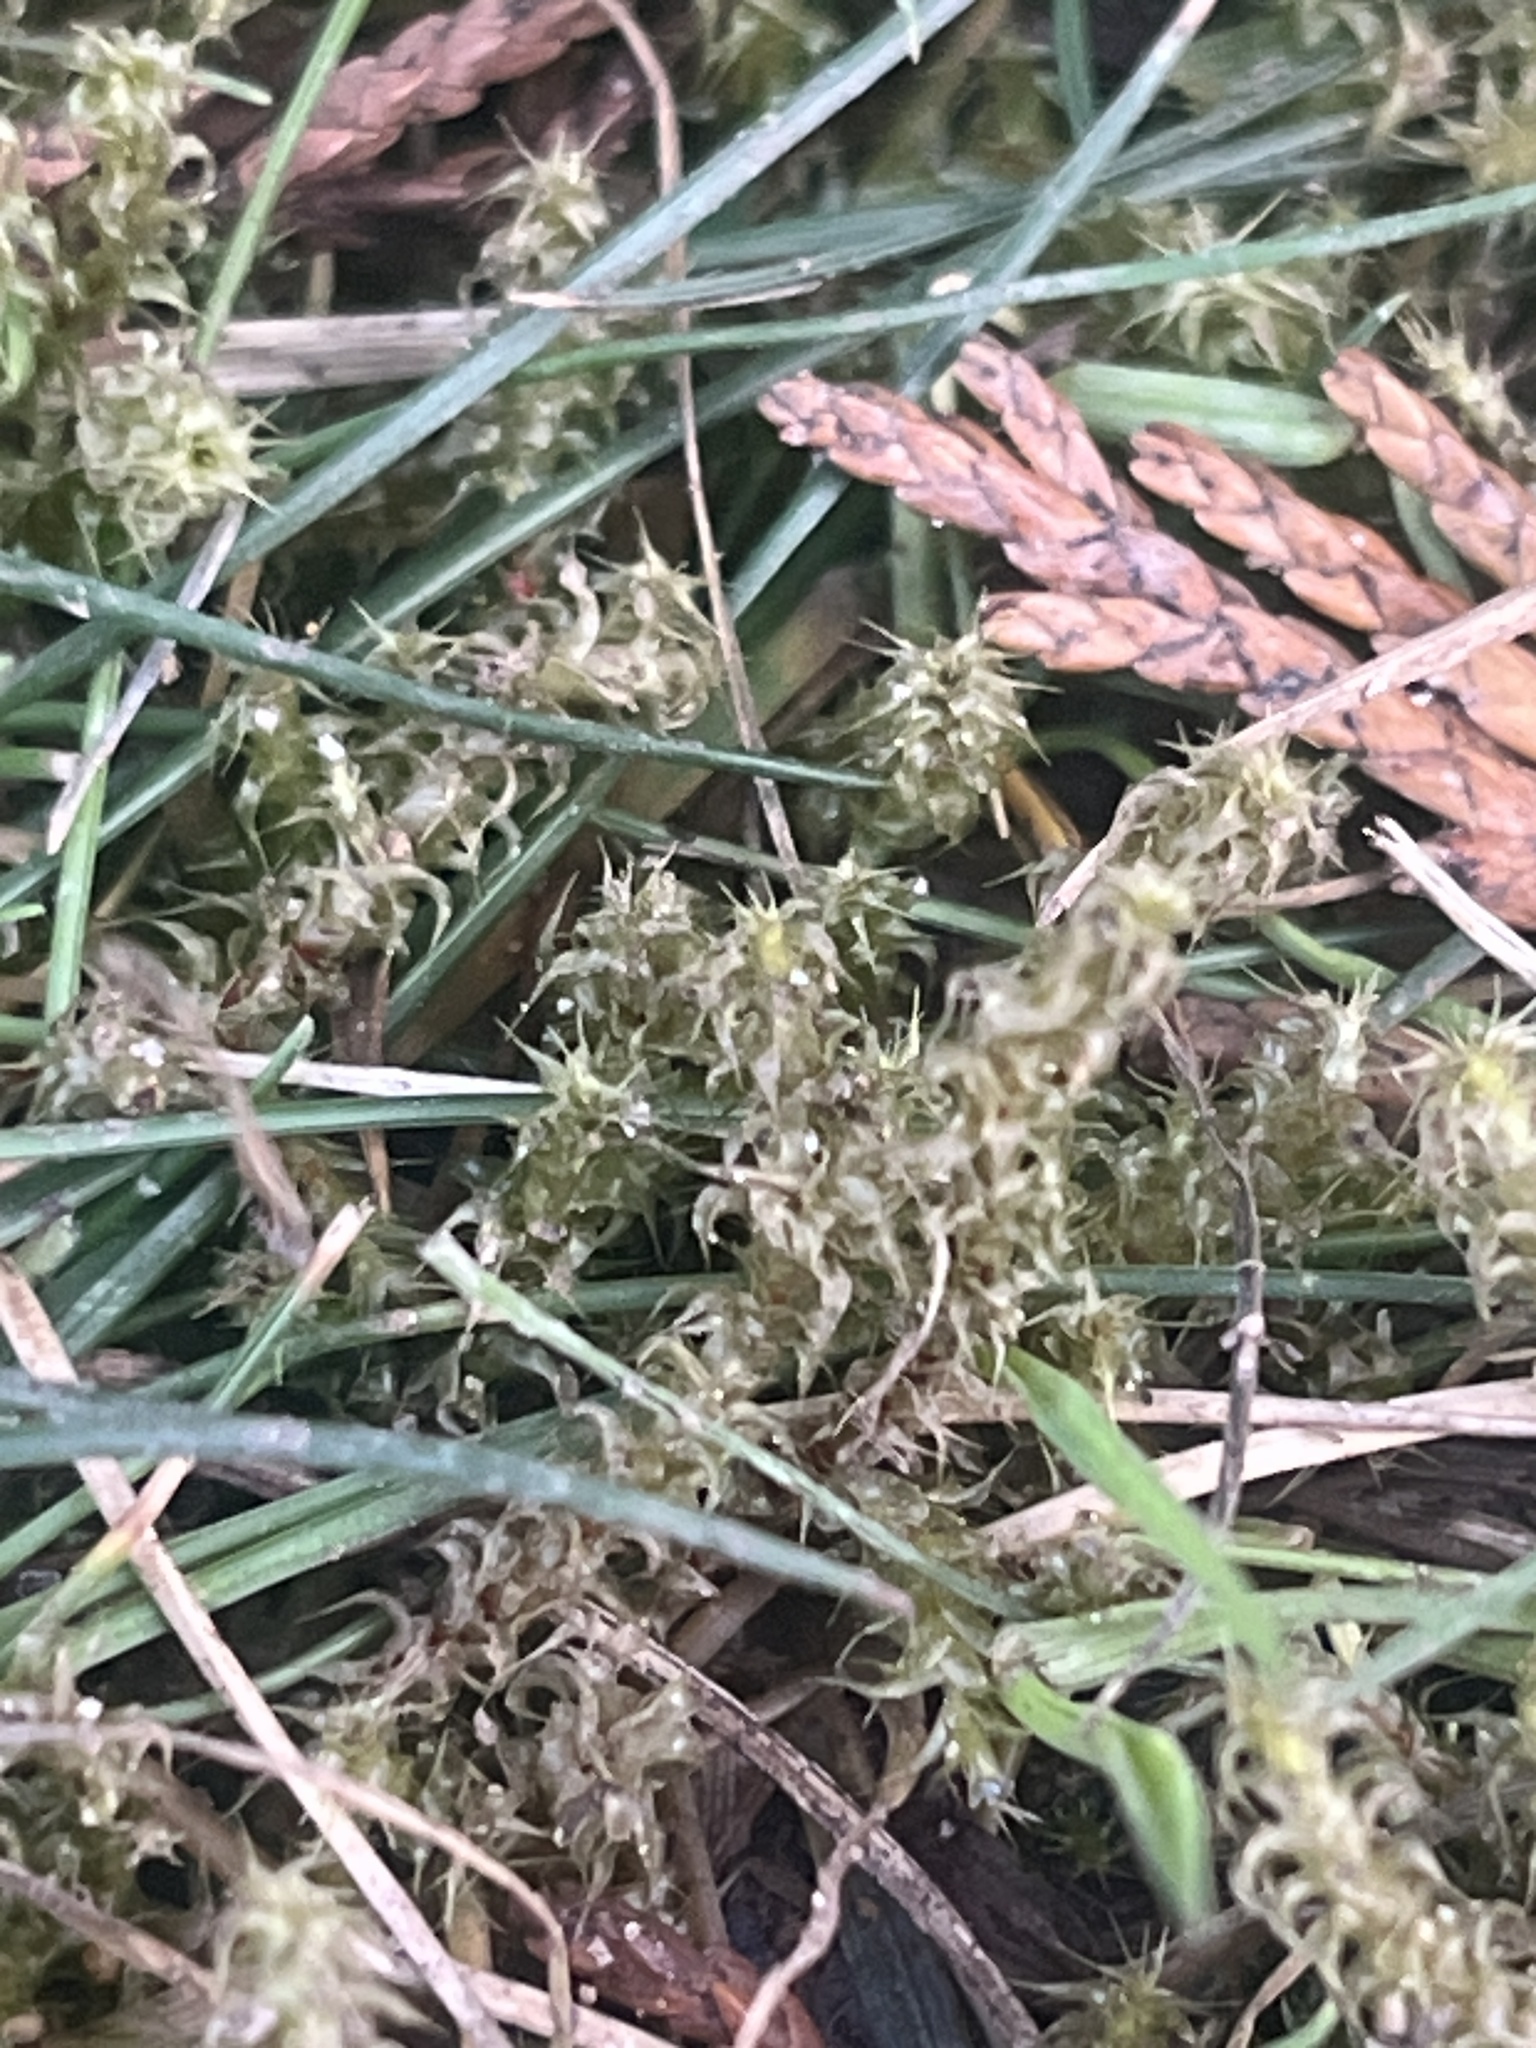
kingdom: Plantae
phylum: Bryophyta
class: Bryopsida
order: Hypnales
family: Hylocomiaceae
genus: Rhytidiadelphus
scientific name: Rhytidiadelphus squarrosus
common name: Springy turf-moss
